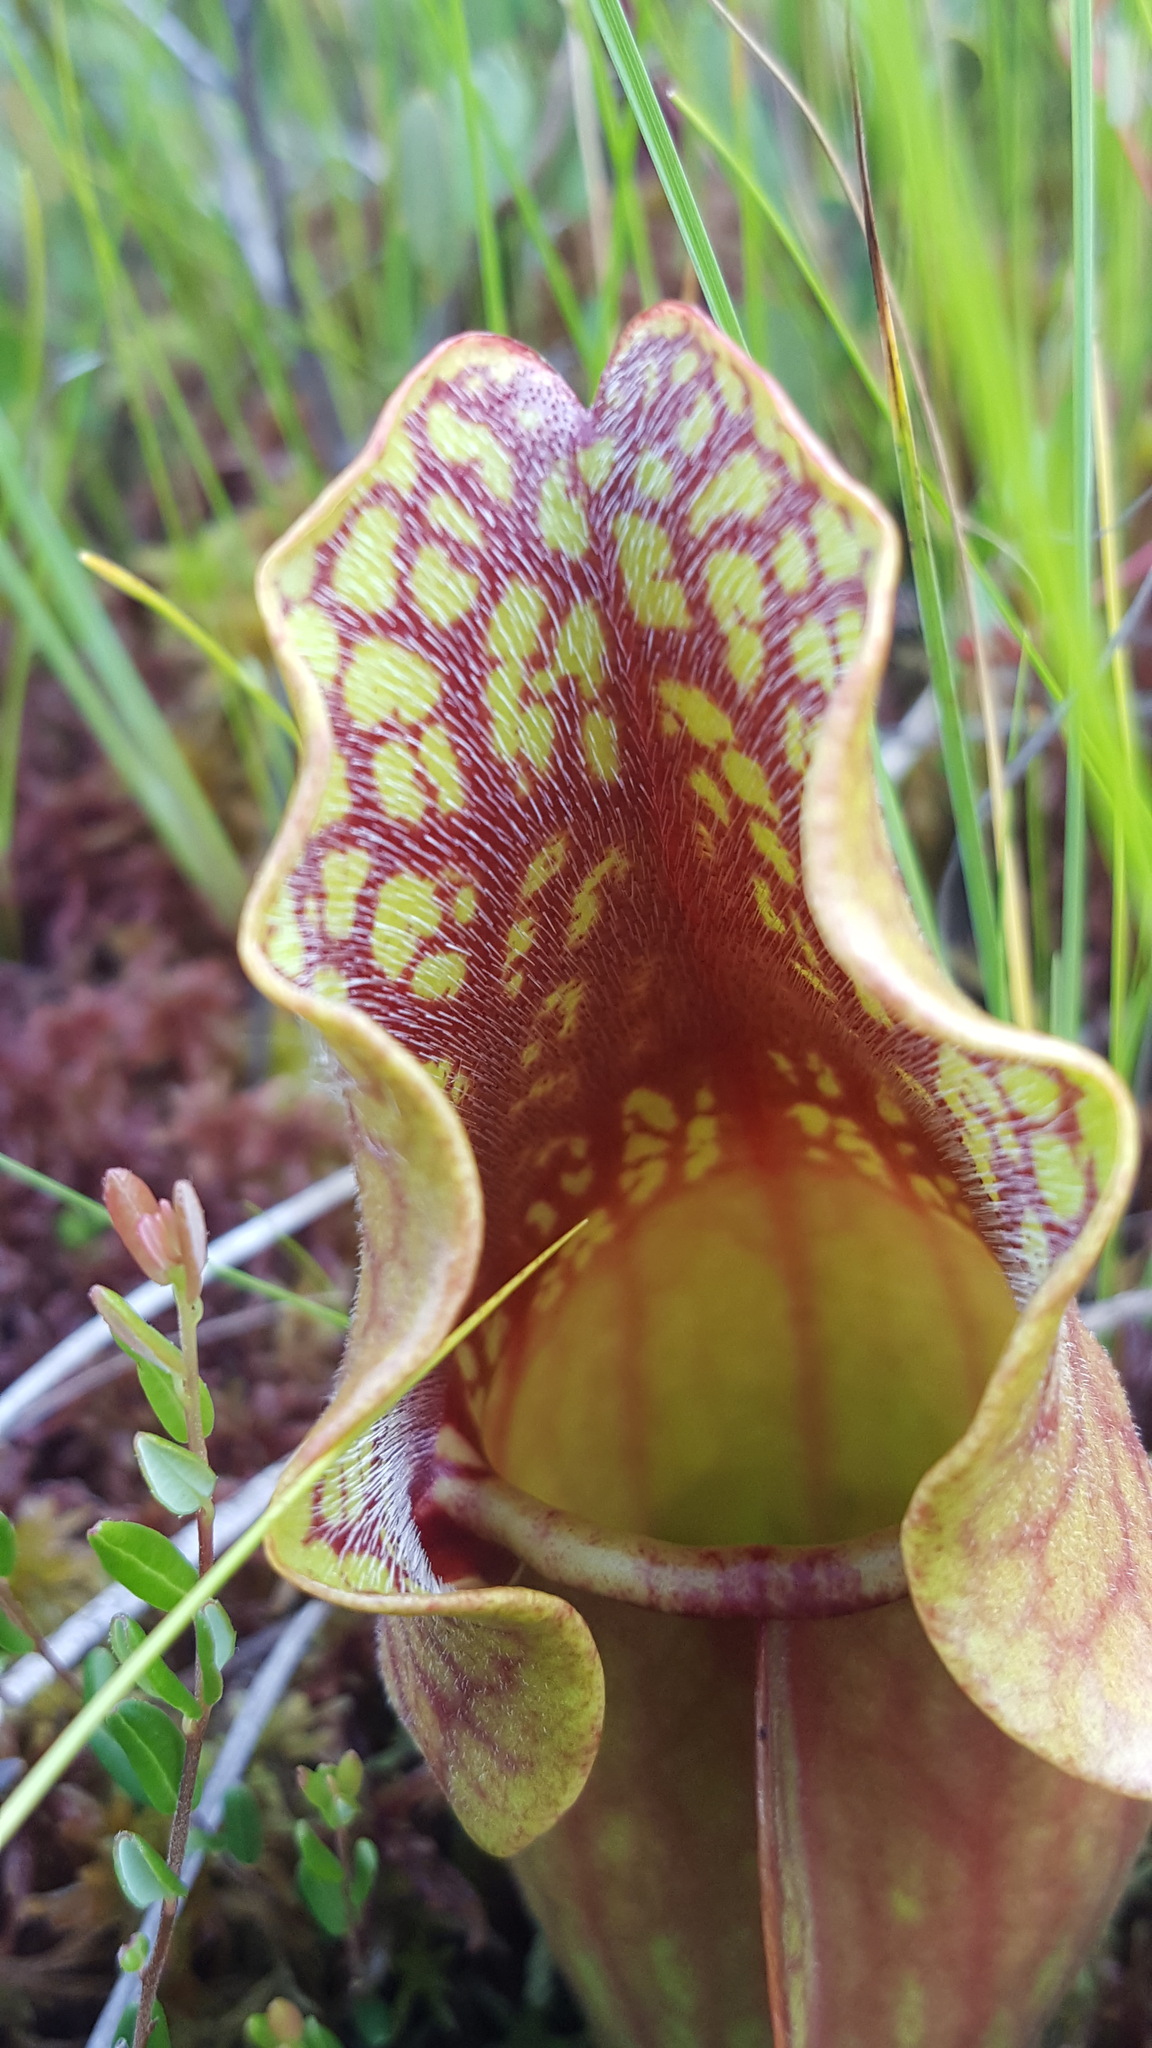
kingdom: Plantae
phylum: Tracheophyta
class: Magnoliopsida
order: Ericales
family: Sarraceniaceae
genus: Sarracenia
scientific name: Sarracenia purpurea
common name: Pitcherplant
